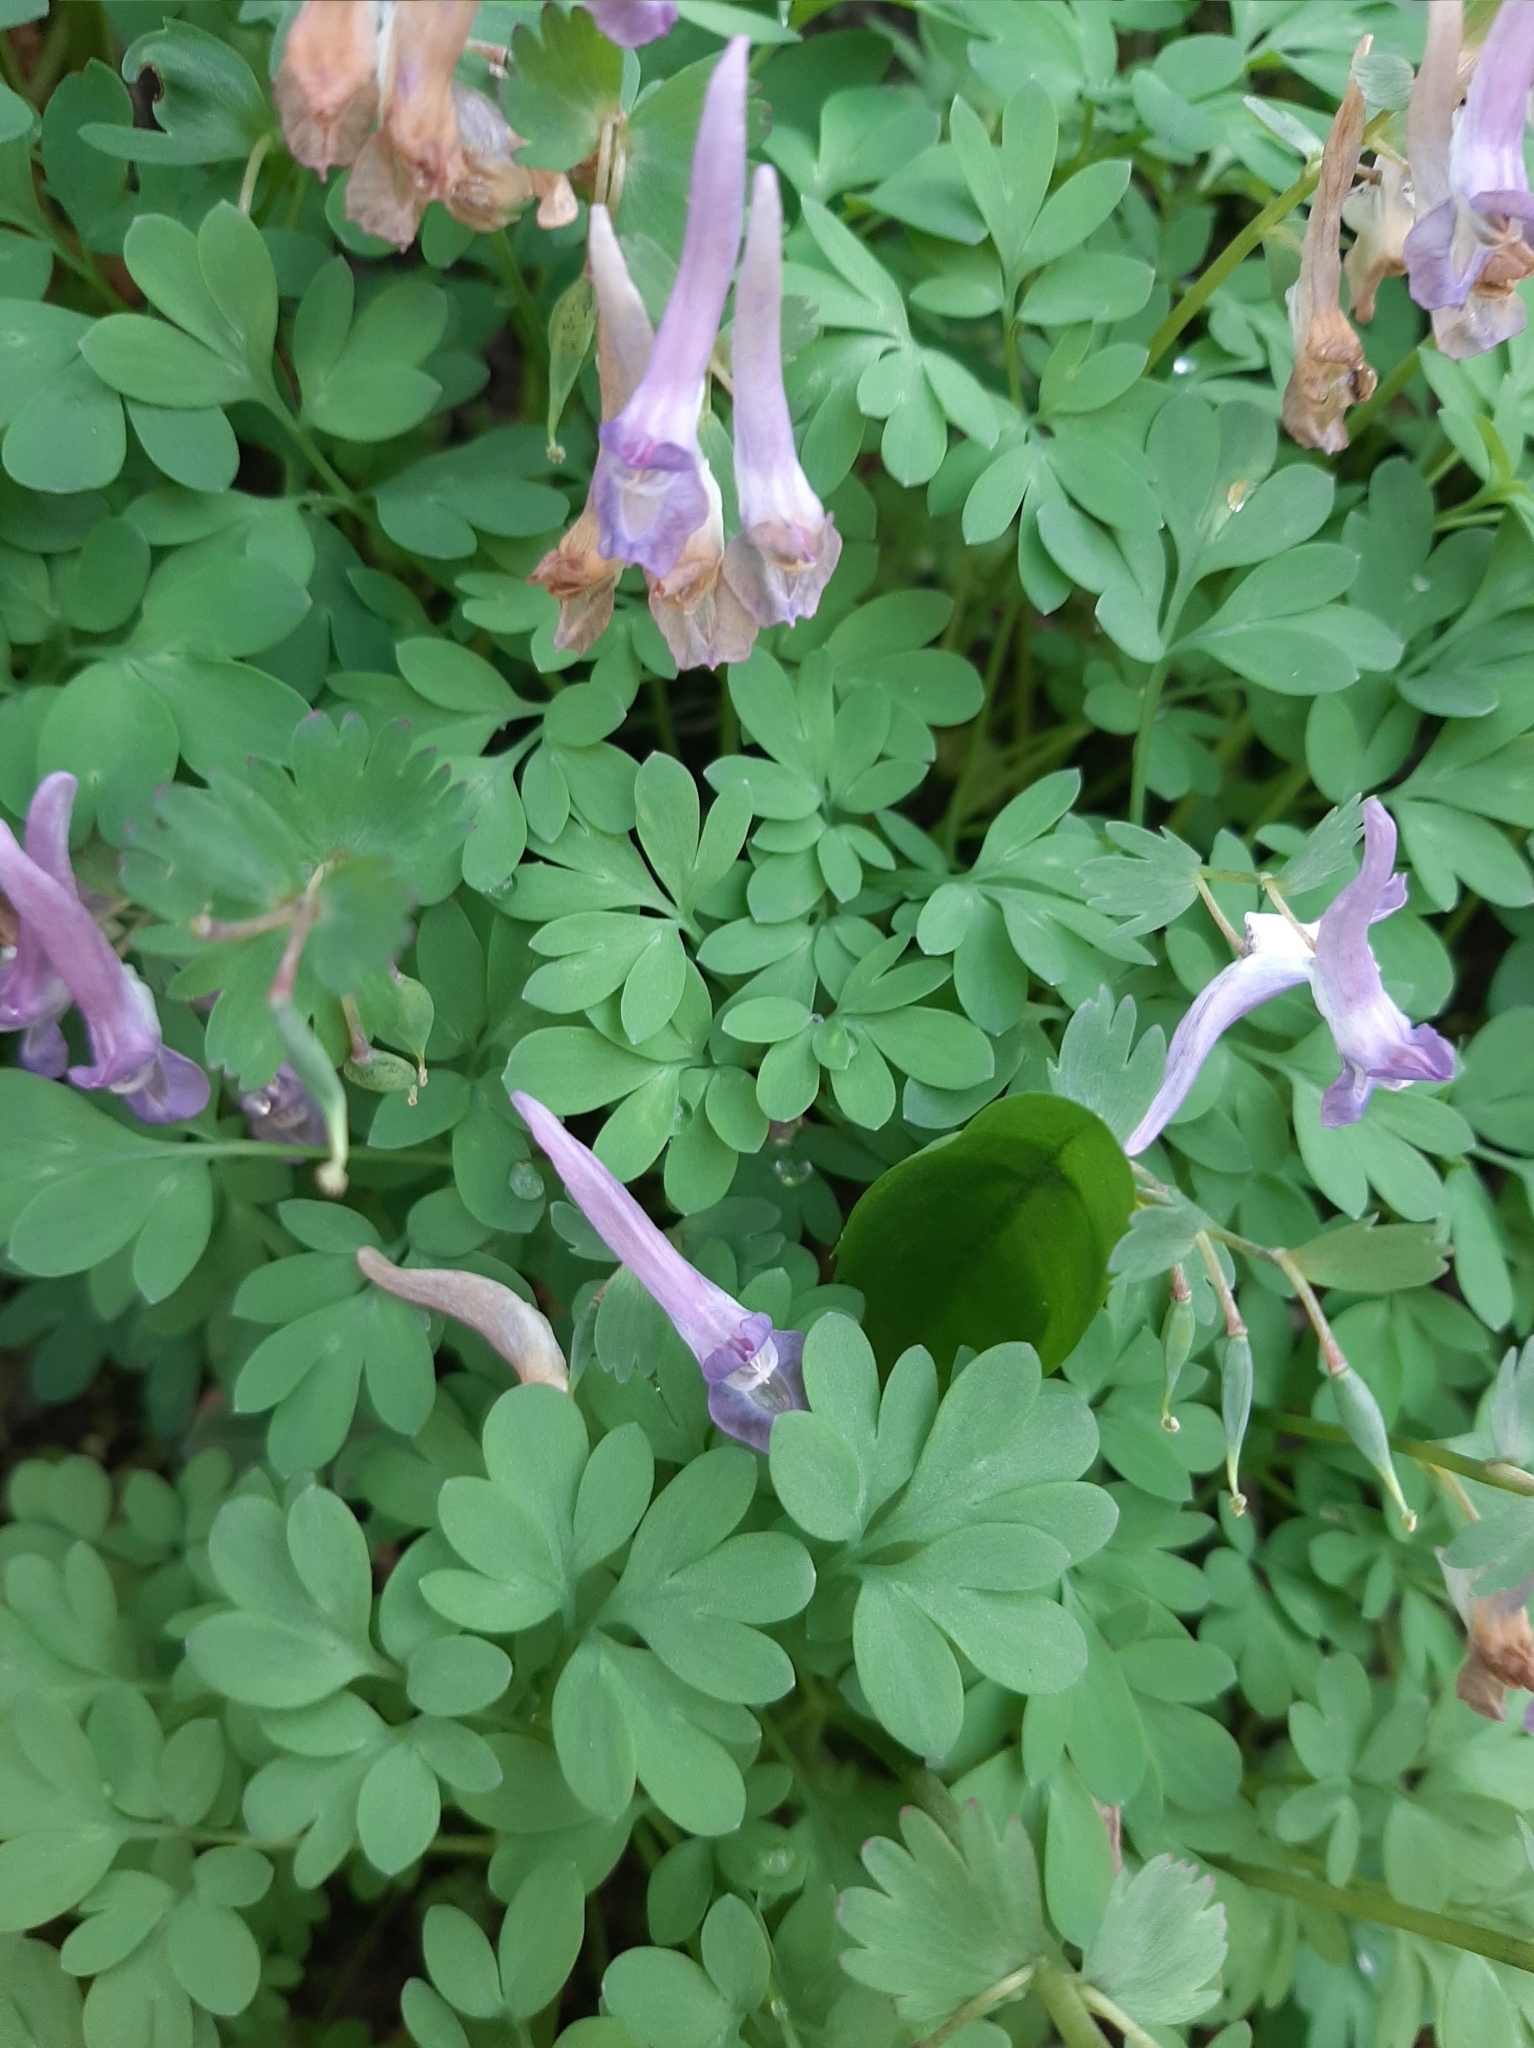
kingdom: Plantae
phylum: Tracheophyta
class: Magnoliopsida
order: Ranunculales
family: Papaveraceae
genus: Corydalis
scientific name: Corydalis solida
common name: Bird-in-a-bush
